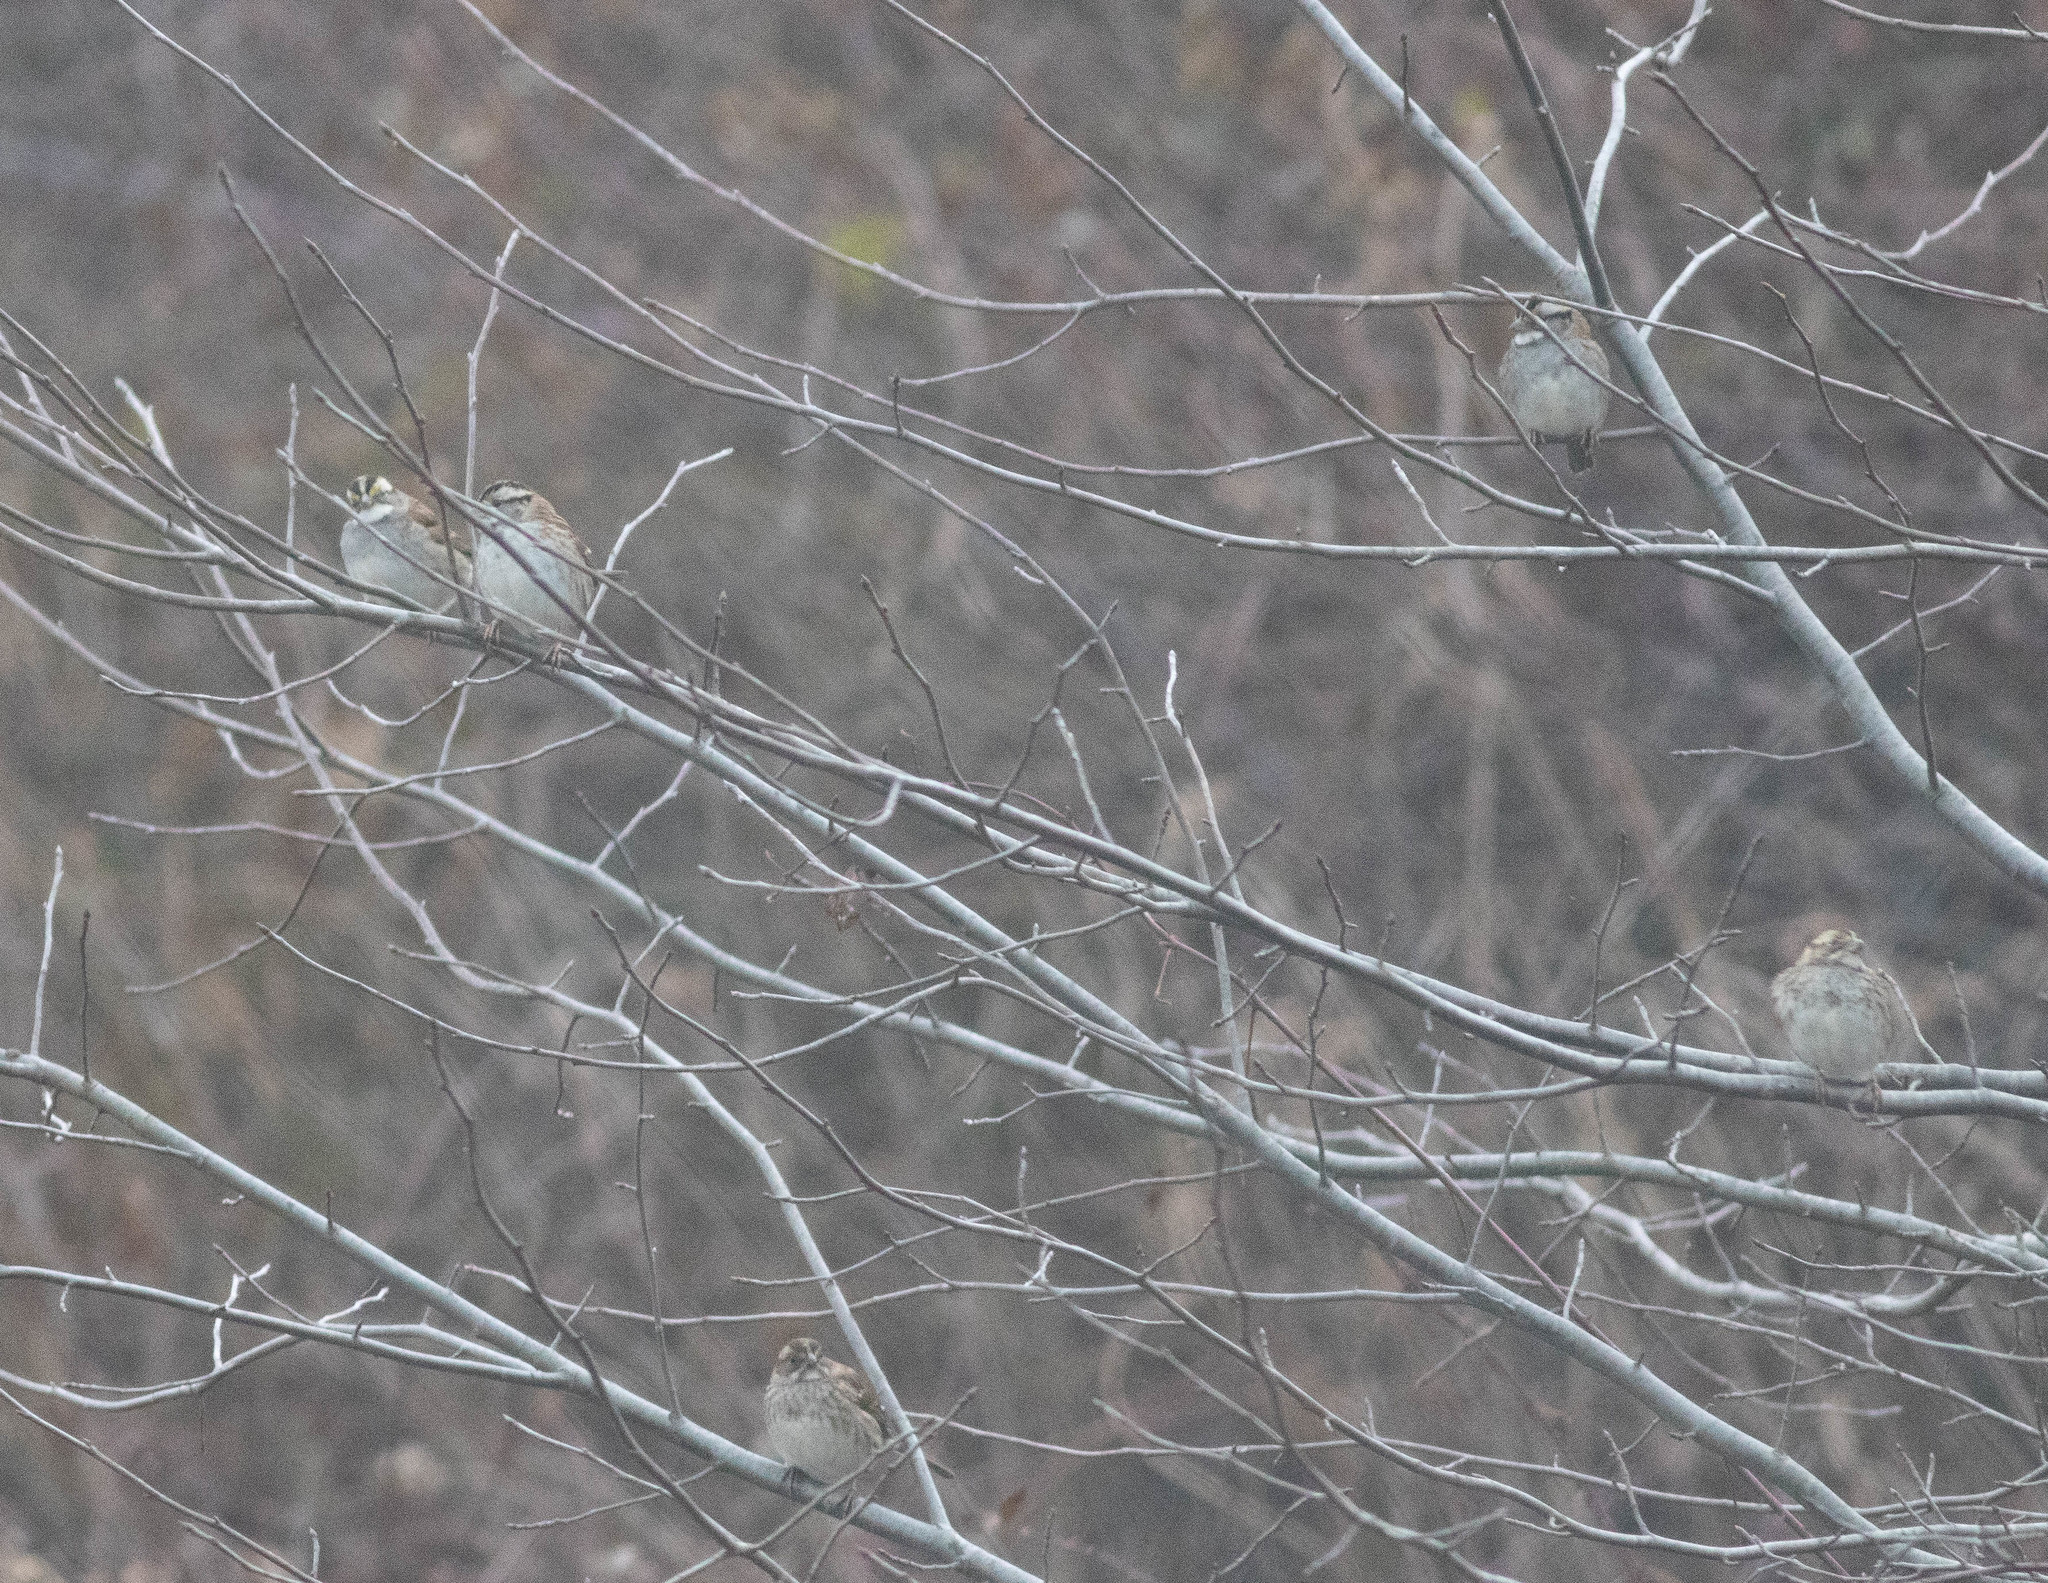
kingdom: Animalia
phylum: Chordata
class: Aves
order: Passeriformes
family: Passerellidae
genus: Zonotrichia
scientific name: Zonotrichia albicollis
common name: White-throated sparrow
